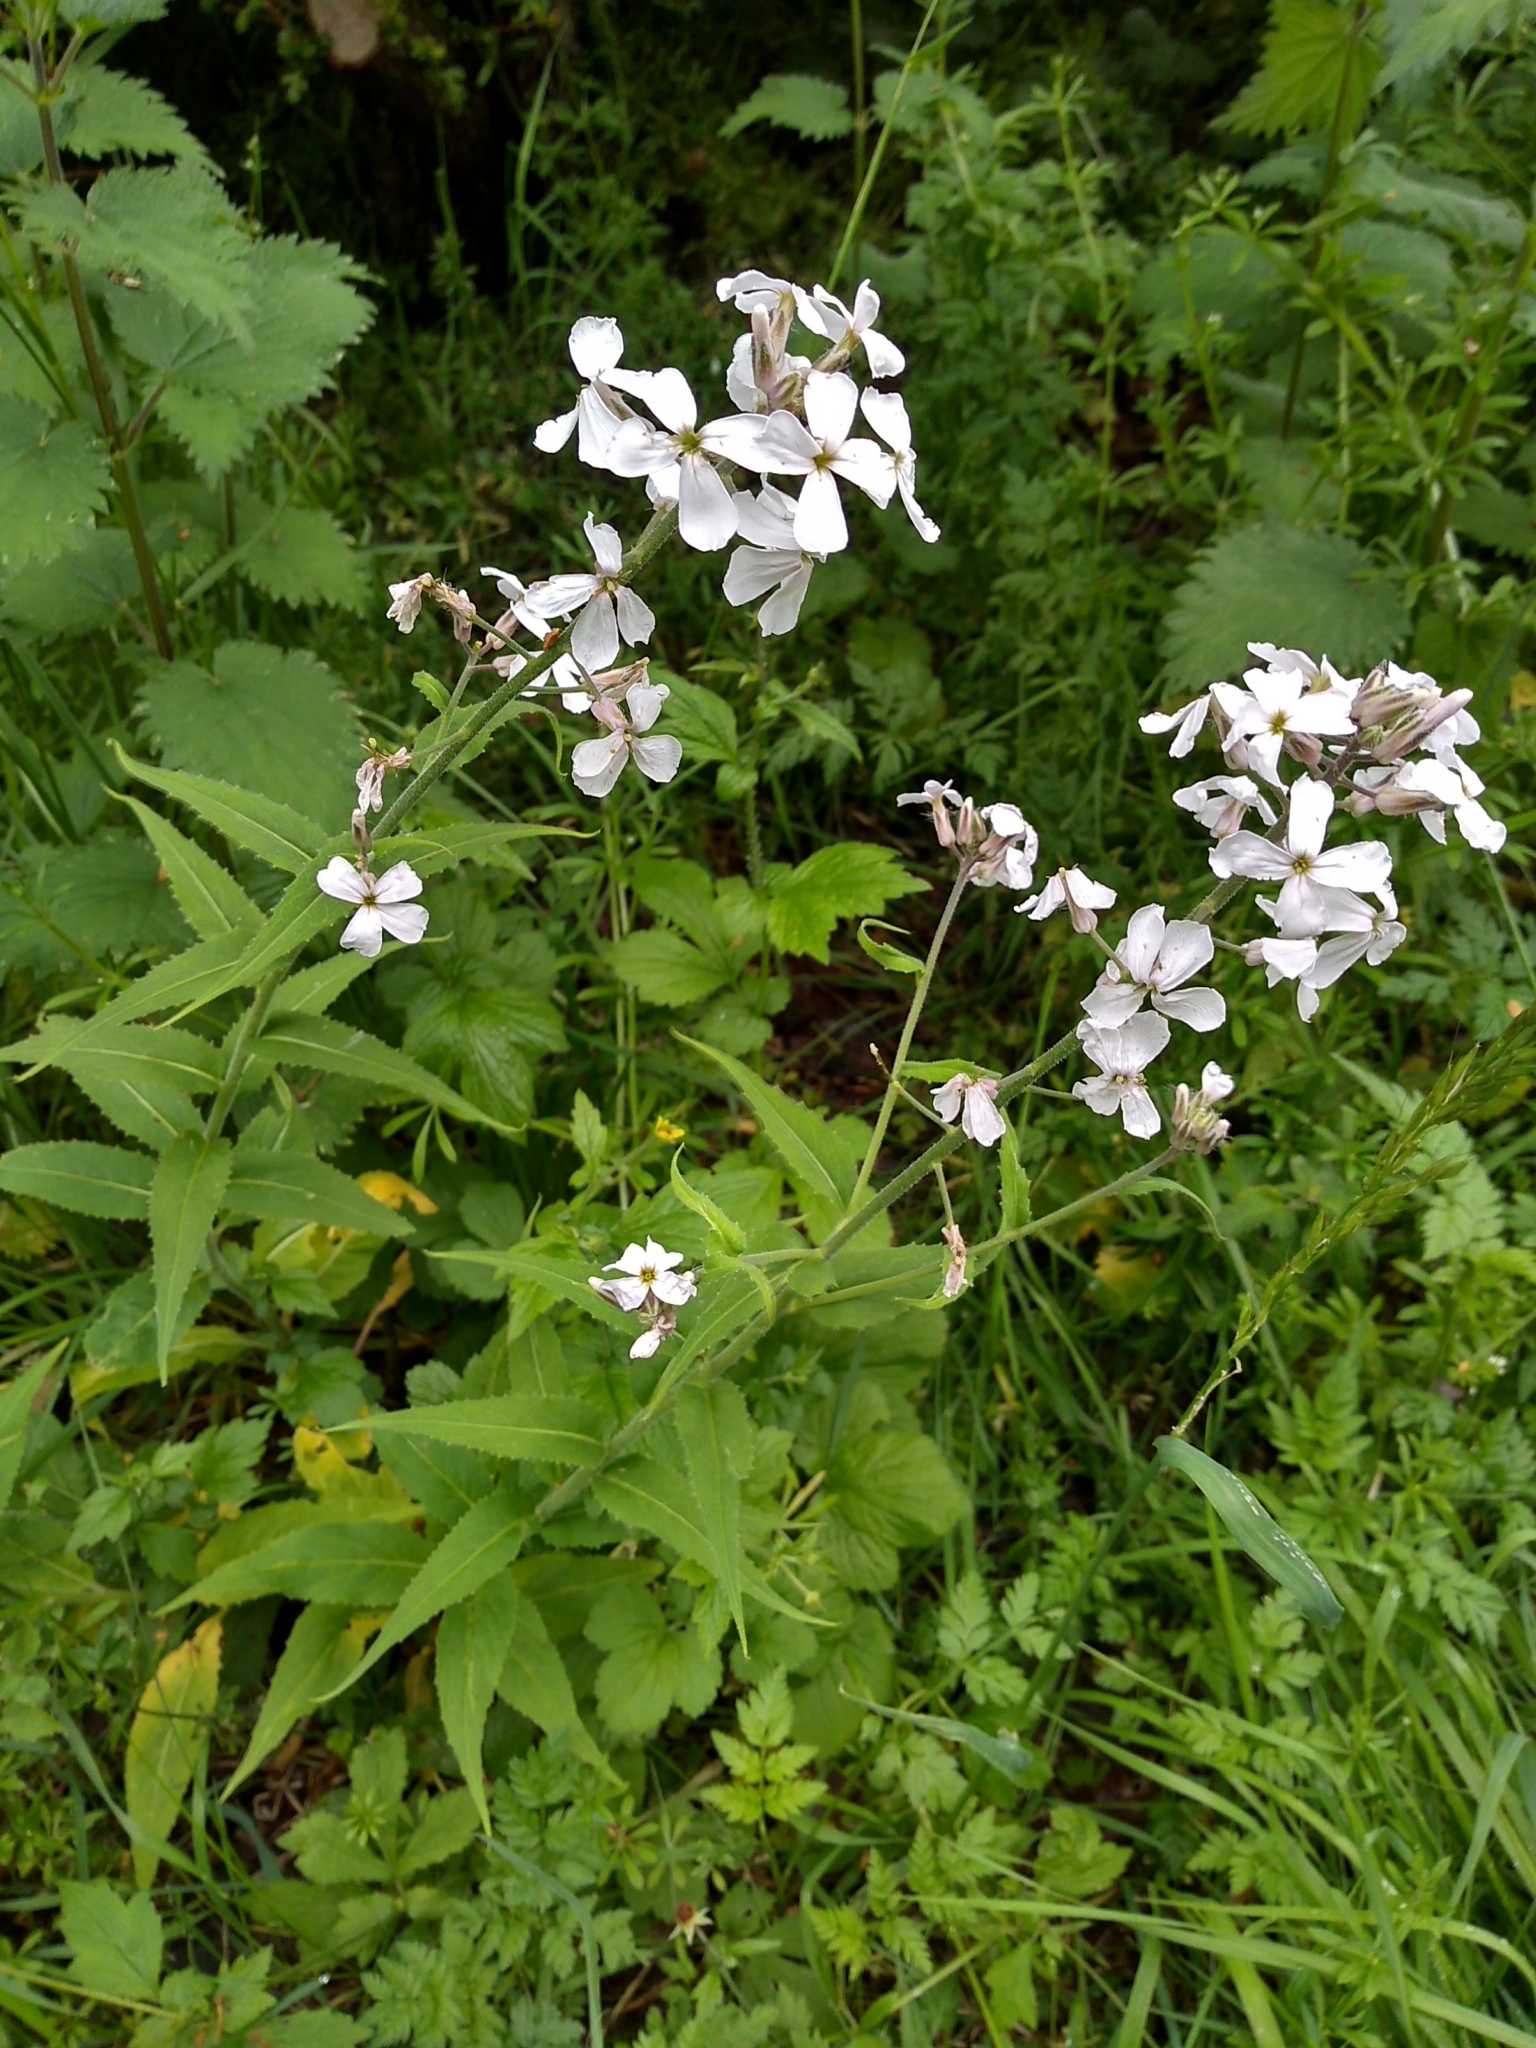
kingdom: Plantae
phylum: Tracheophyta
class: Magnoliopsida
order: Brassicales
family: Brassicaceae
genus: Hesperis
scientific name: Hesperis matronalis
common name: Dame's-violet
